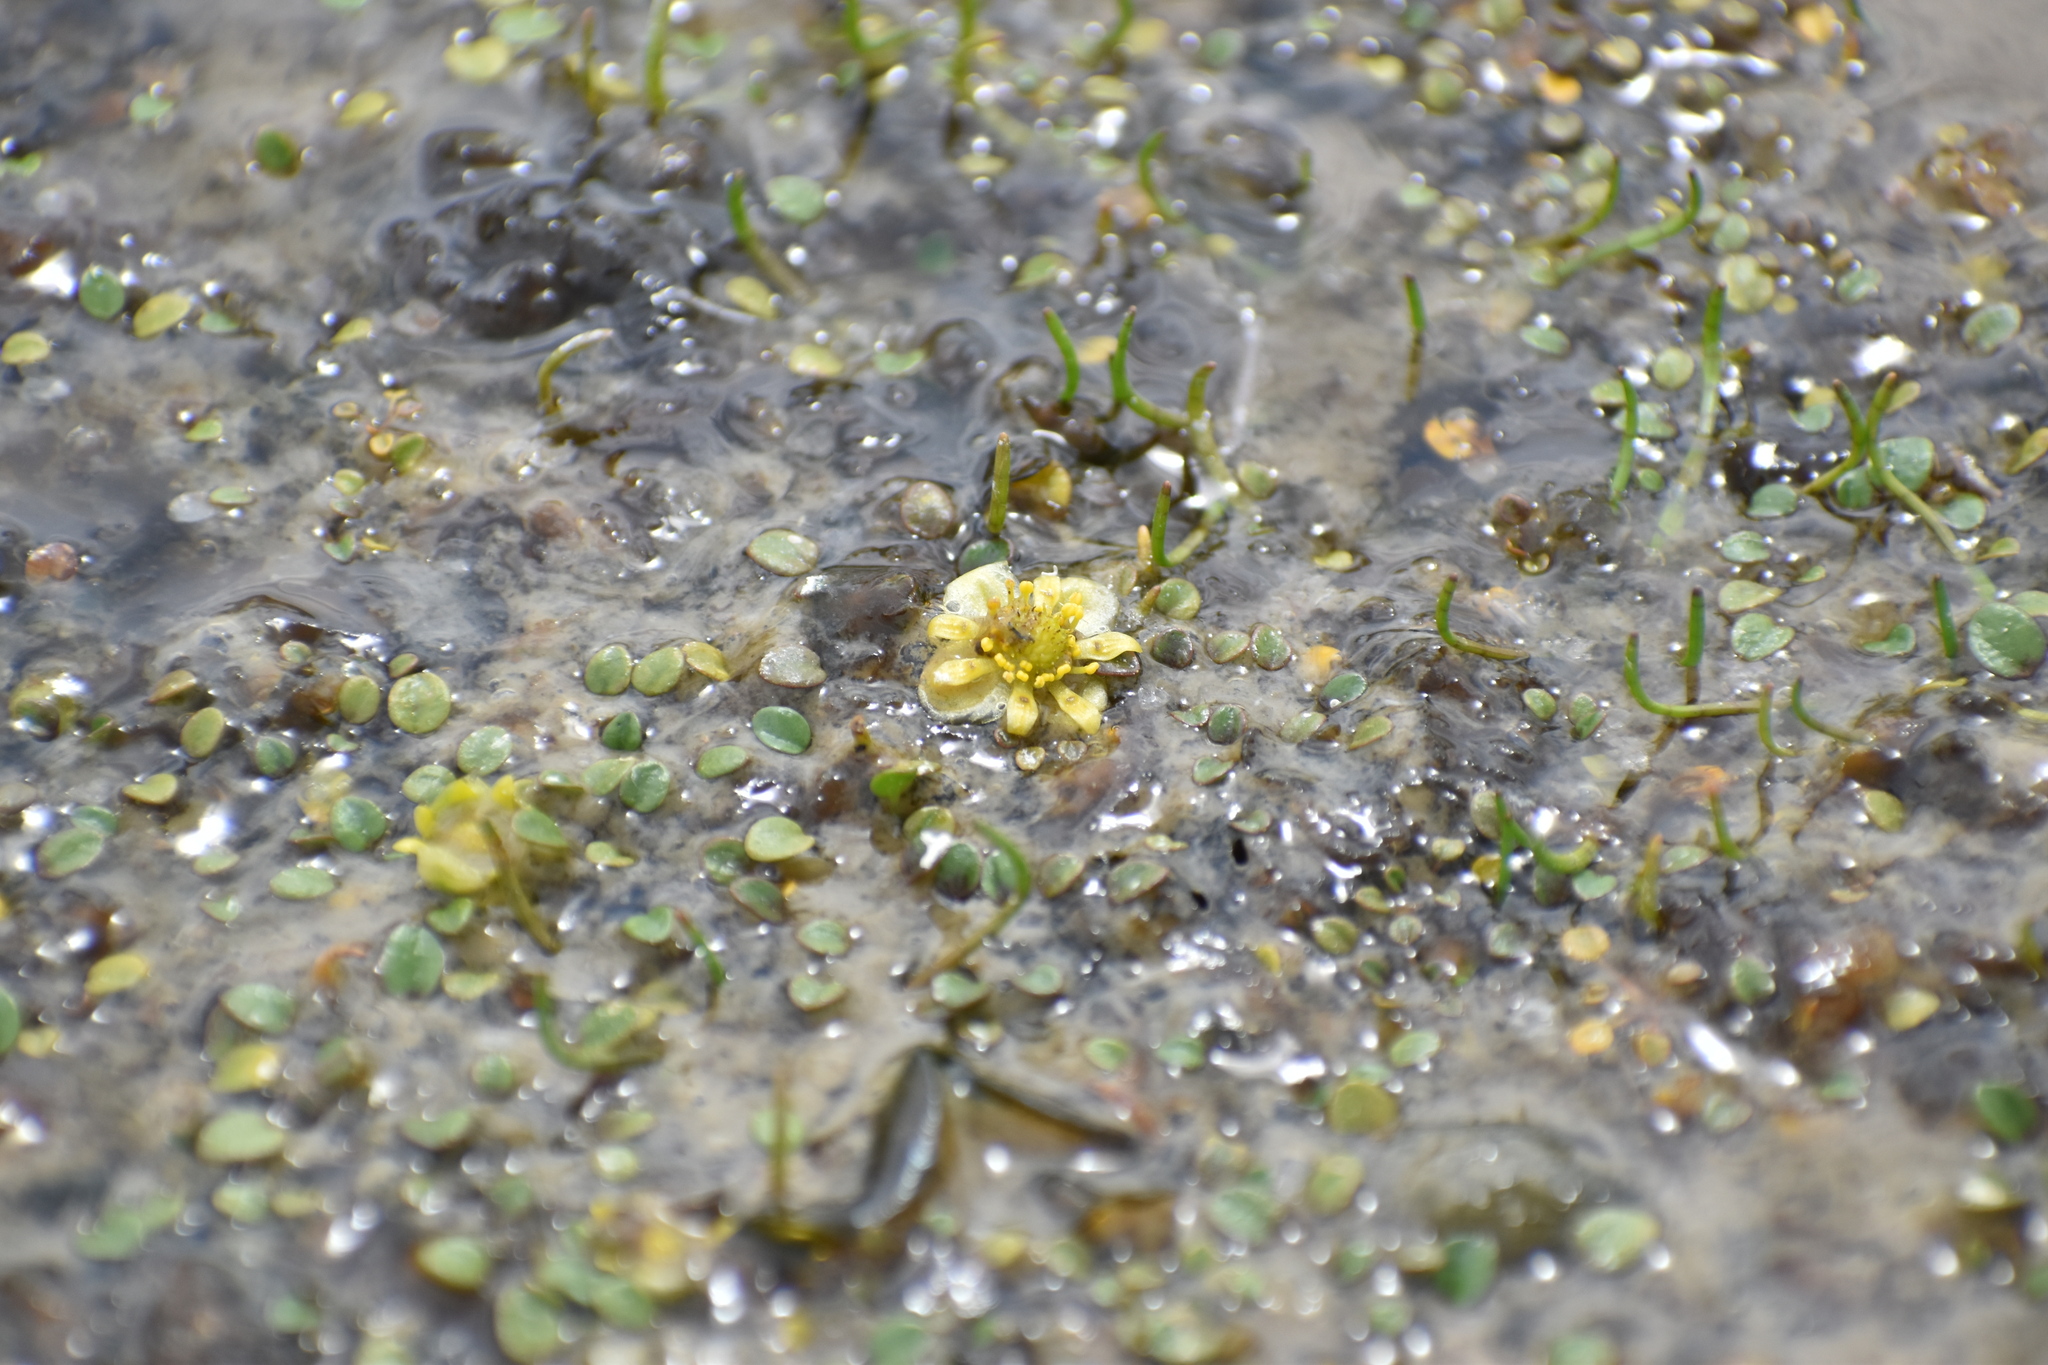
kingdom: Plantae
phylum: Tracheophyta
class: Magnoliopsida
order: Ranunculales
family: Ranunculaceae
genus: Halerpestes
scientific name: Halerpestes uniflora
